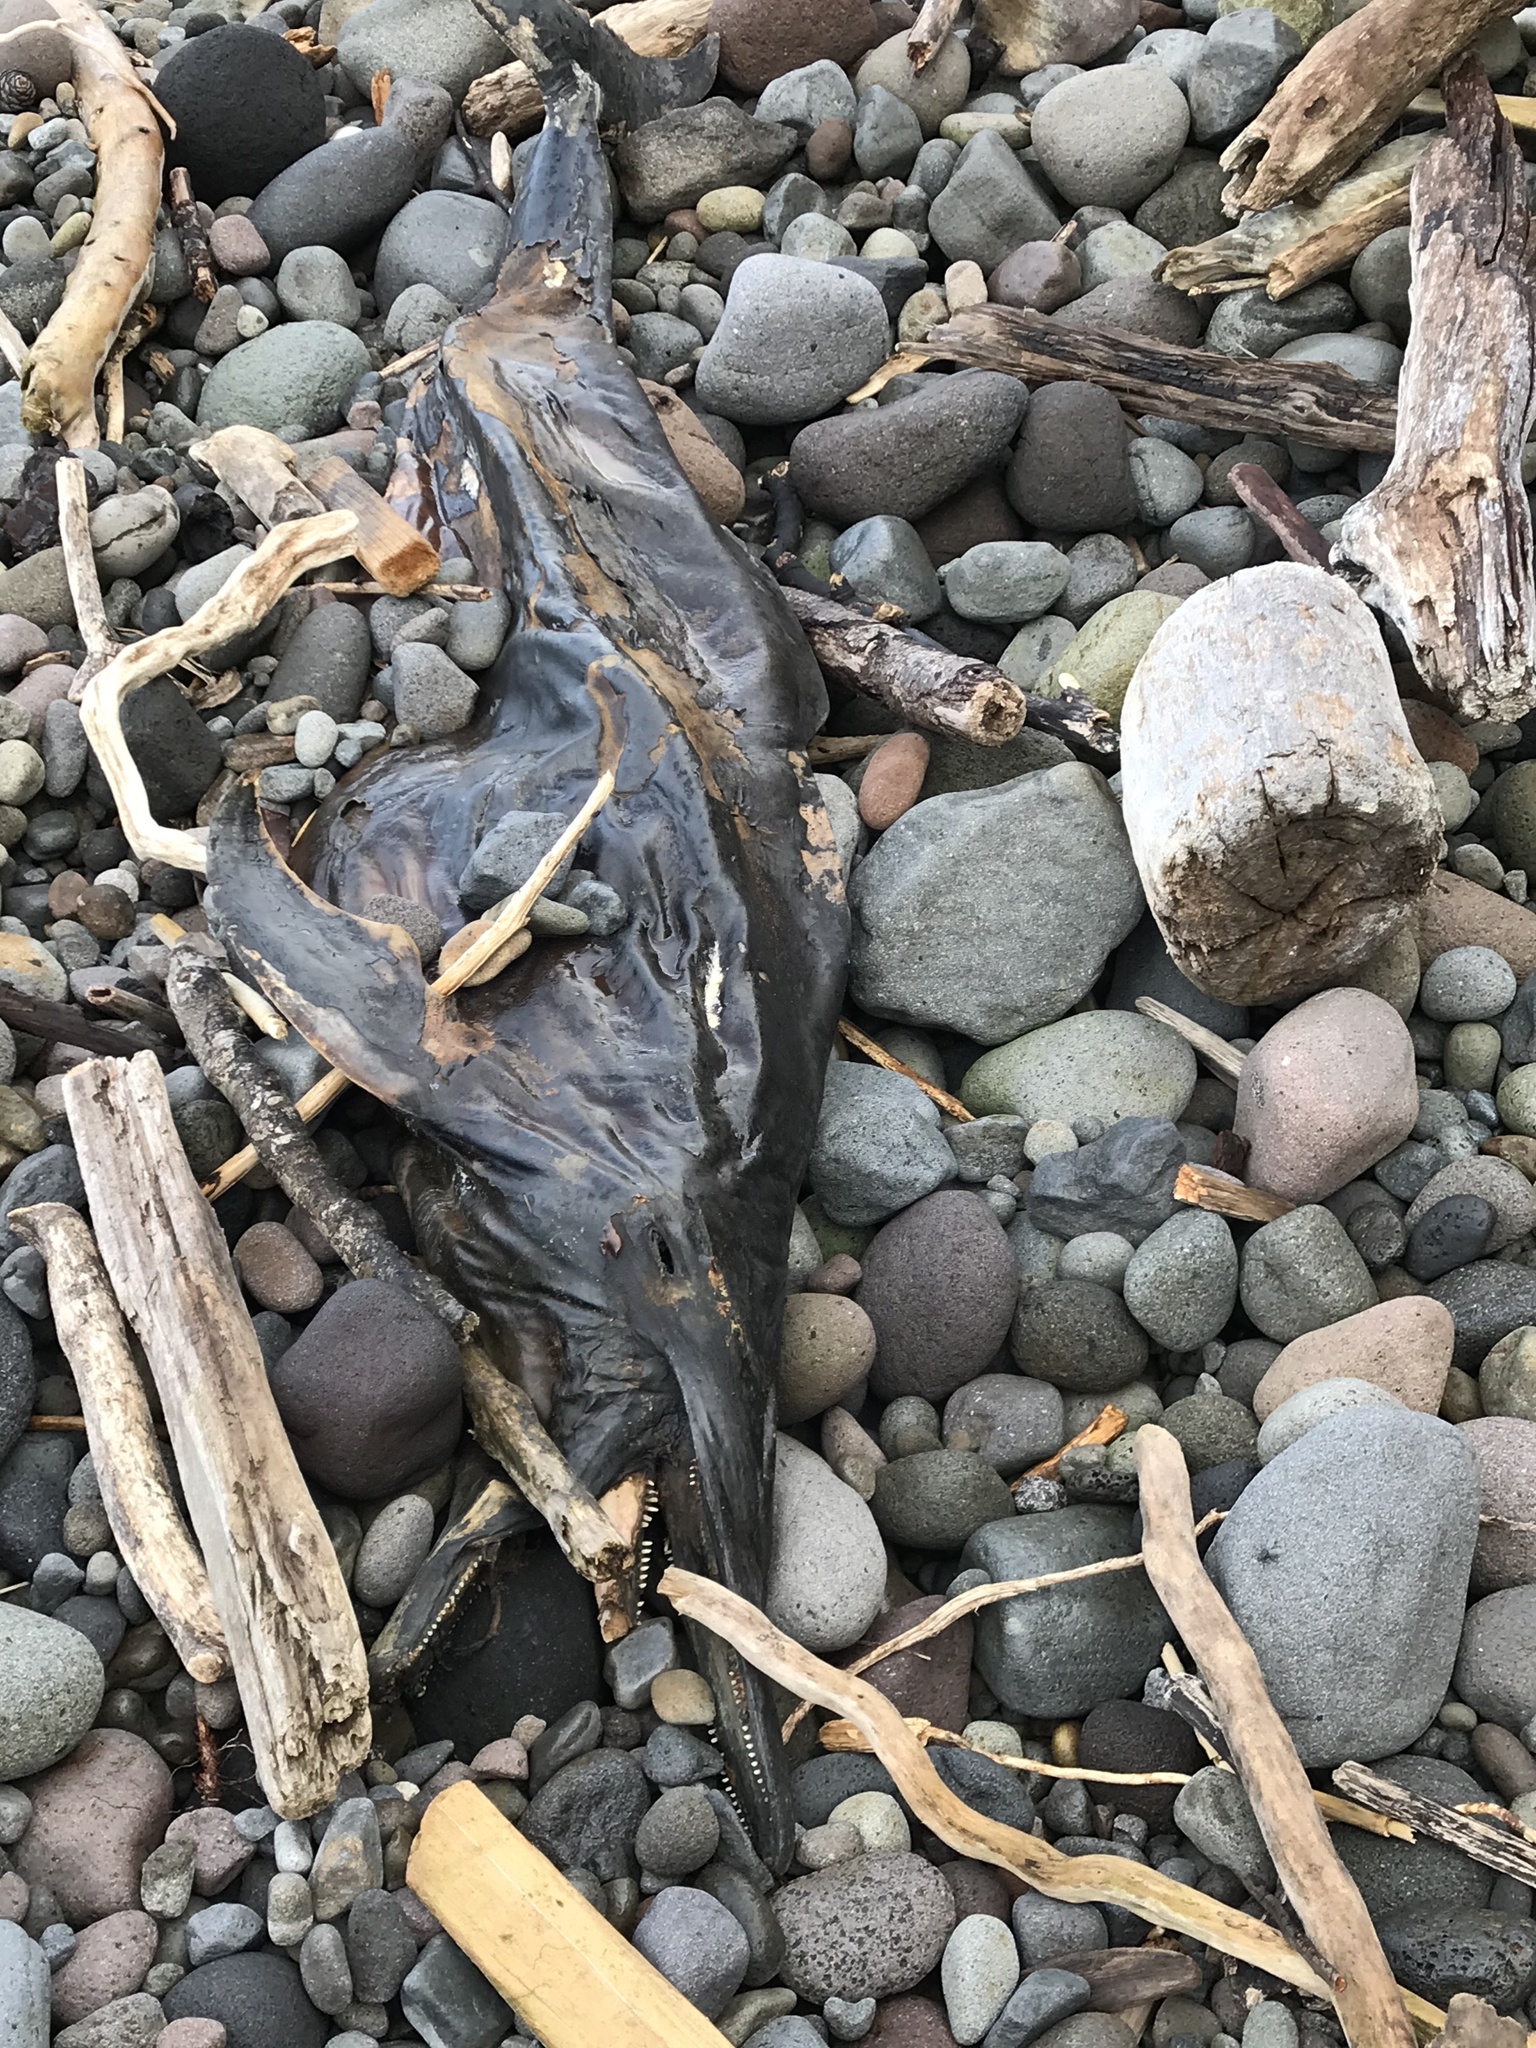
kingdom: Animalia
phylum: Chordata
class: Mammalia
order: Cetacea
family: Delphinidae
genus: Delphinus
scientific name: Delphinus delphis
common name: Common dolphin
